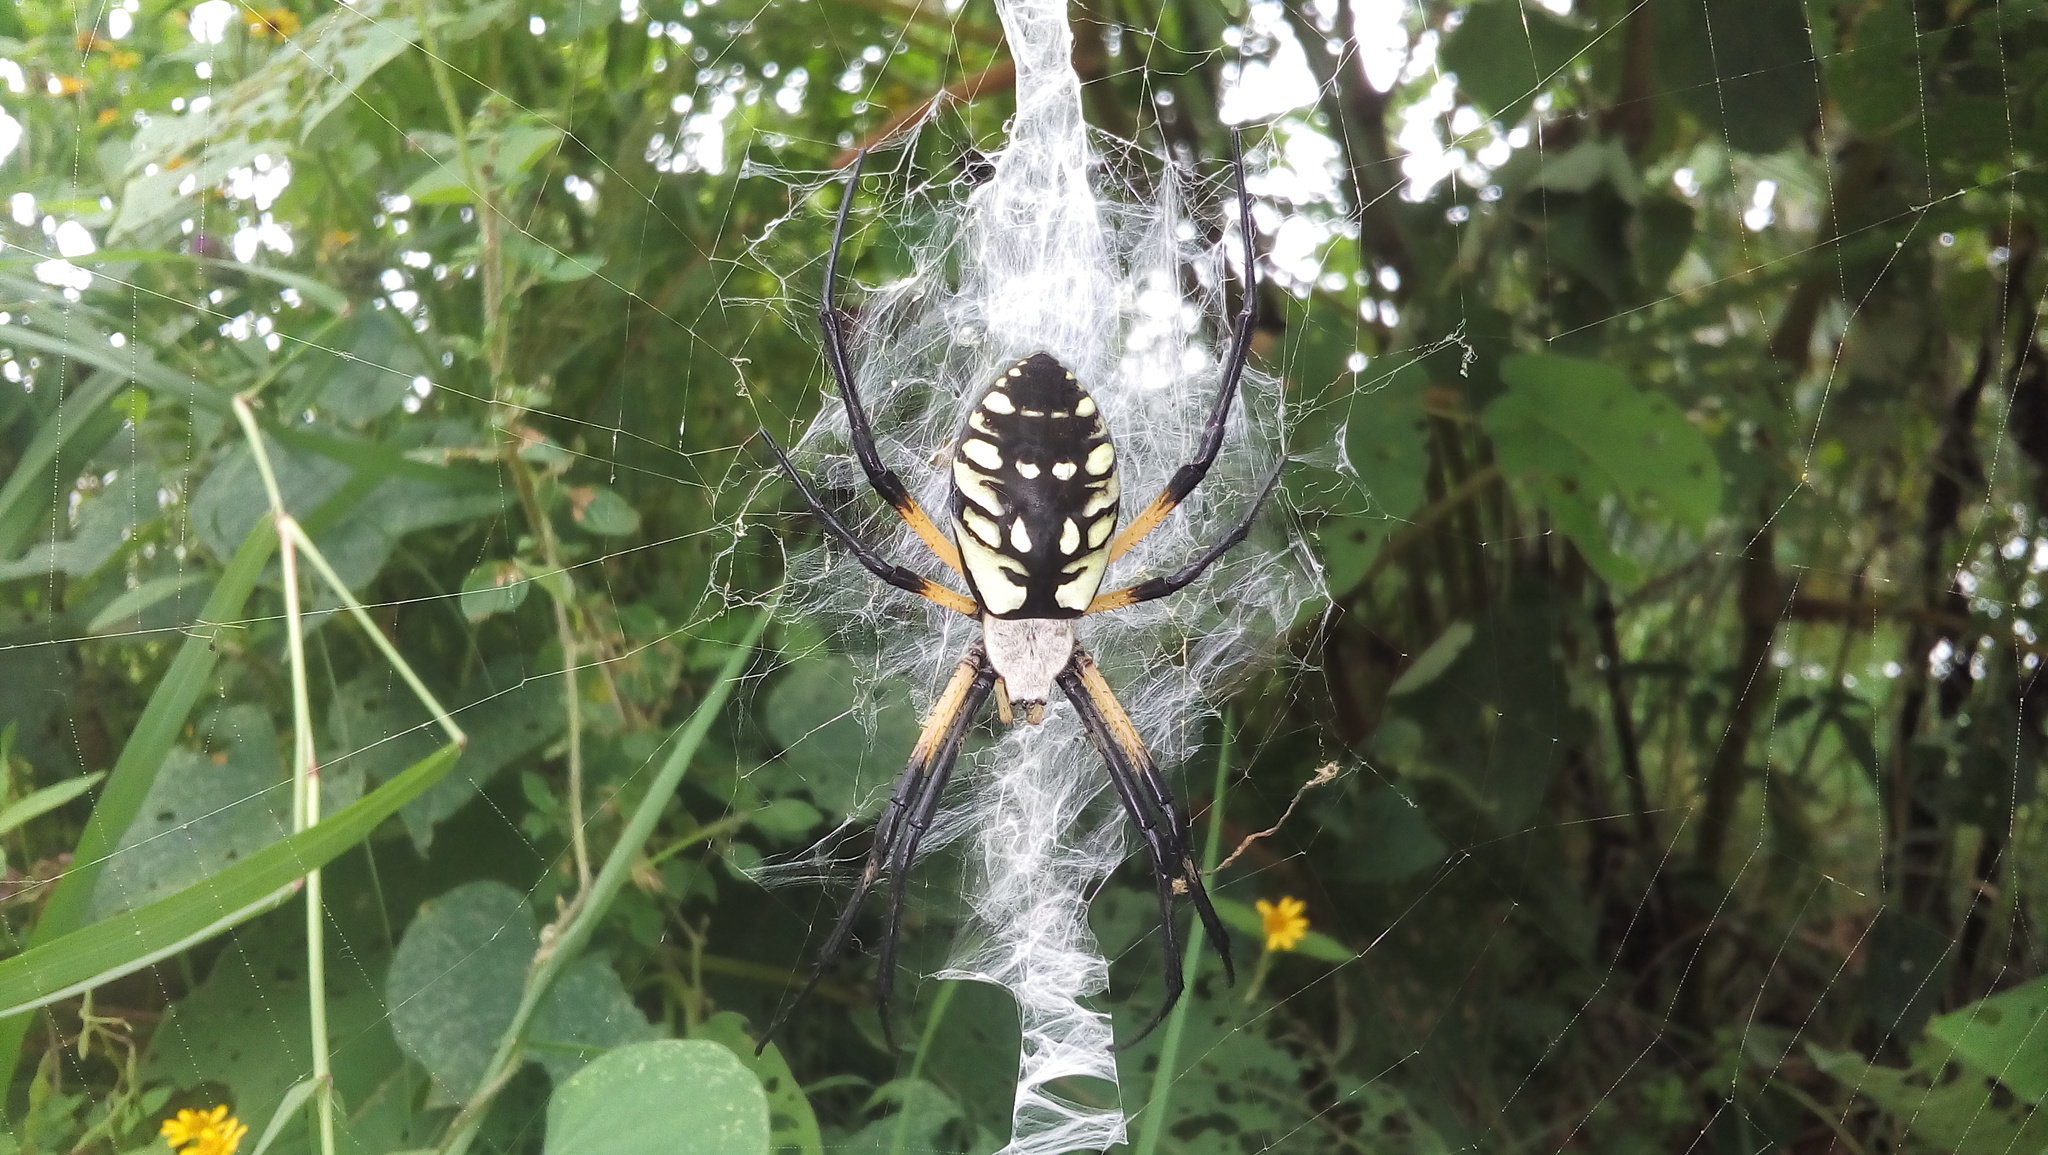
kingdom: Animalia
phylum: Arthropoda
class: Arachnida
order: Araneae
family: Araneidae
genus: Argiope
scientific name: Argiope aurantia
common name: Orb weavers
